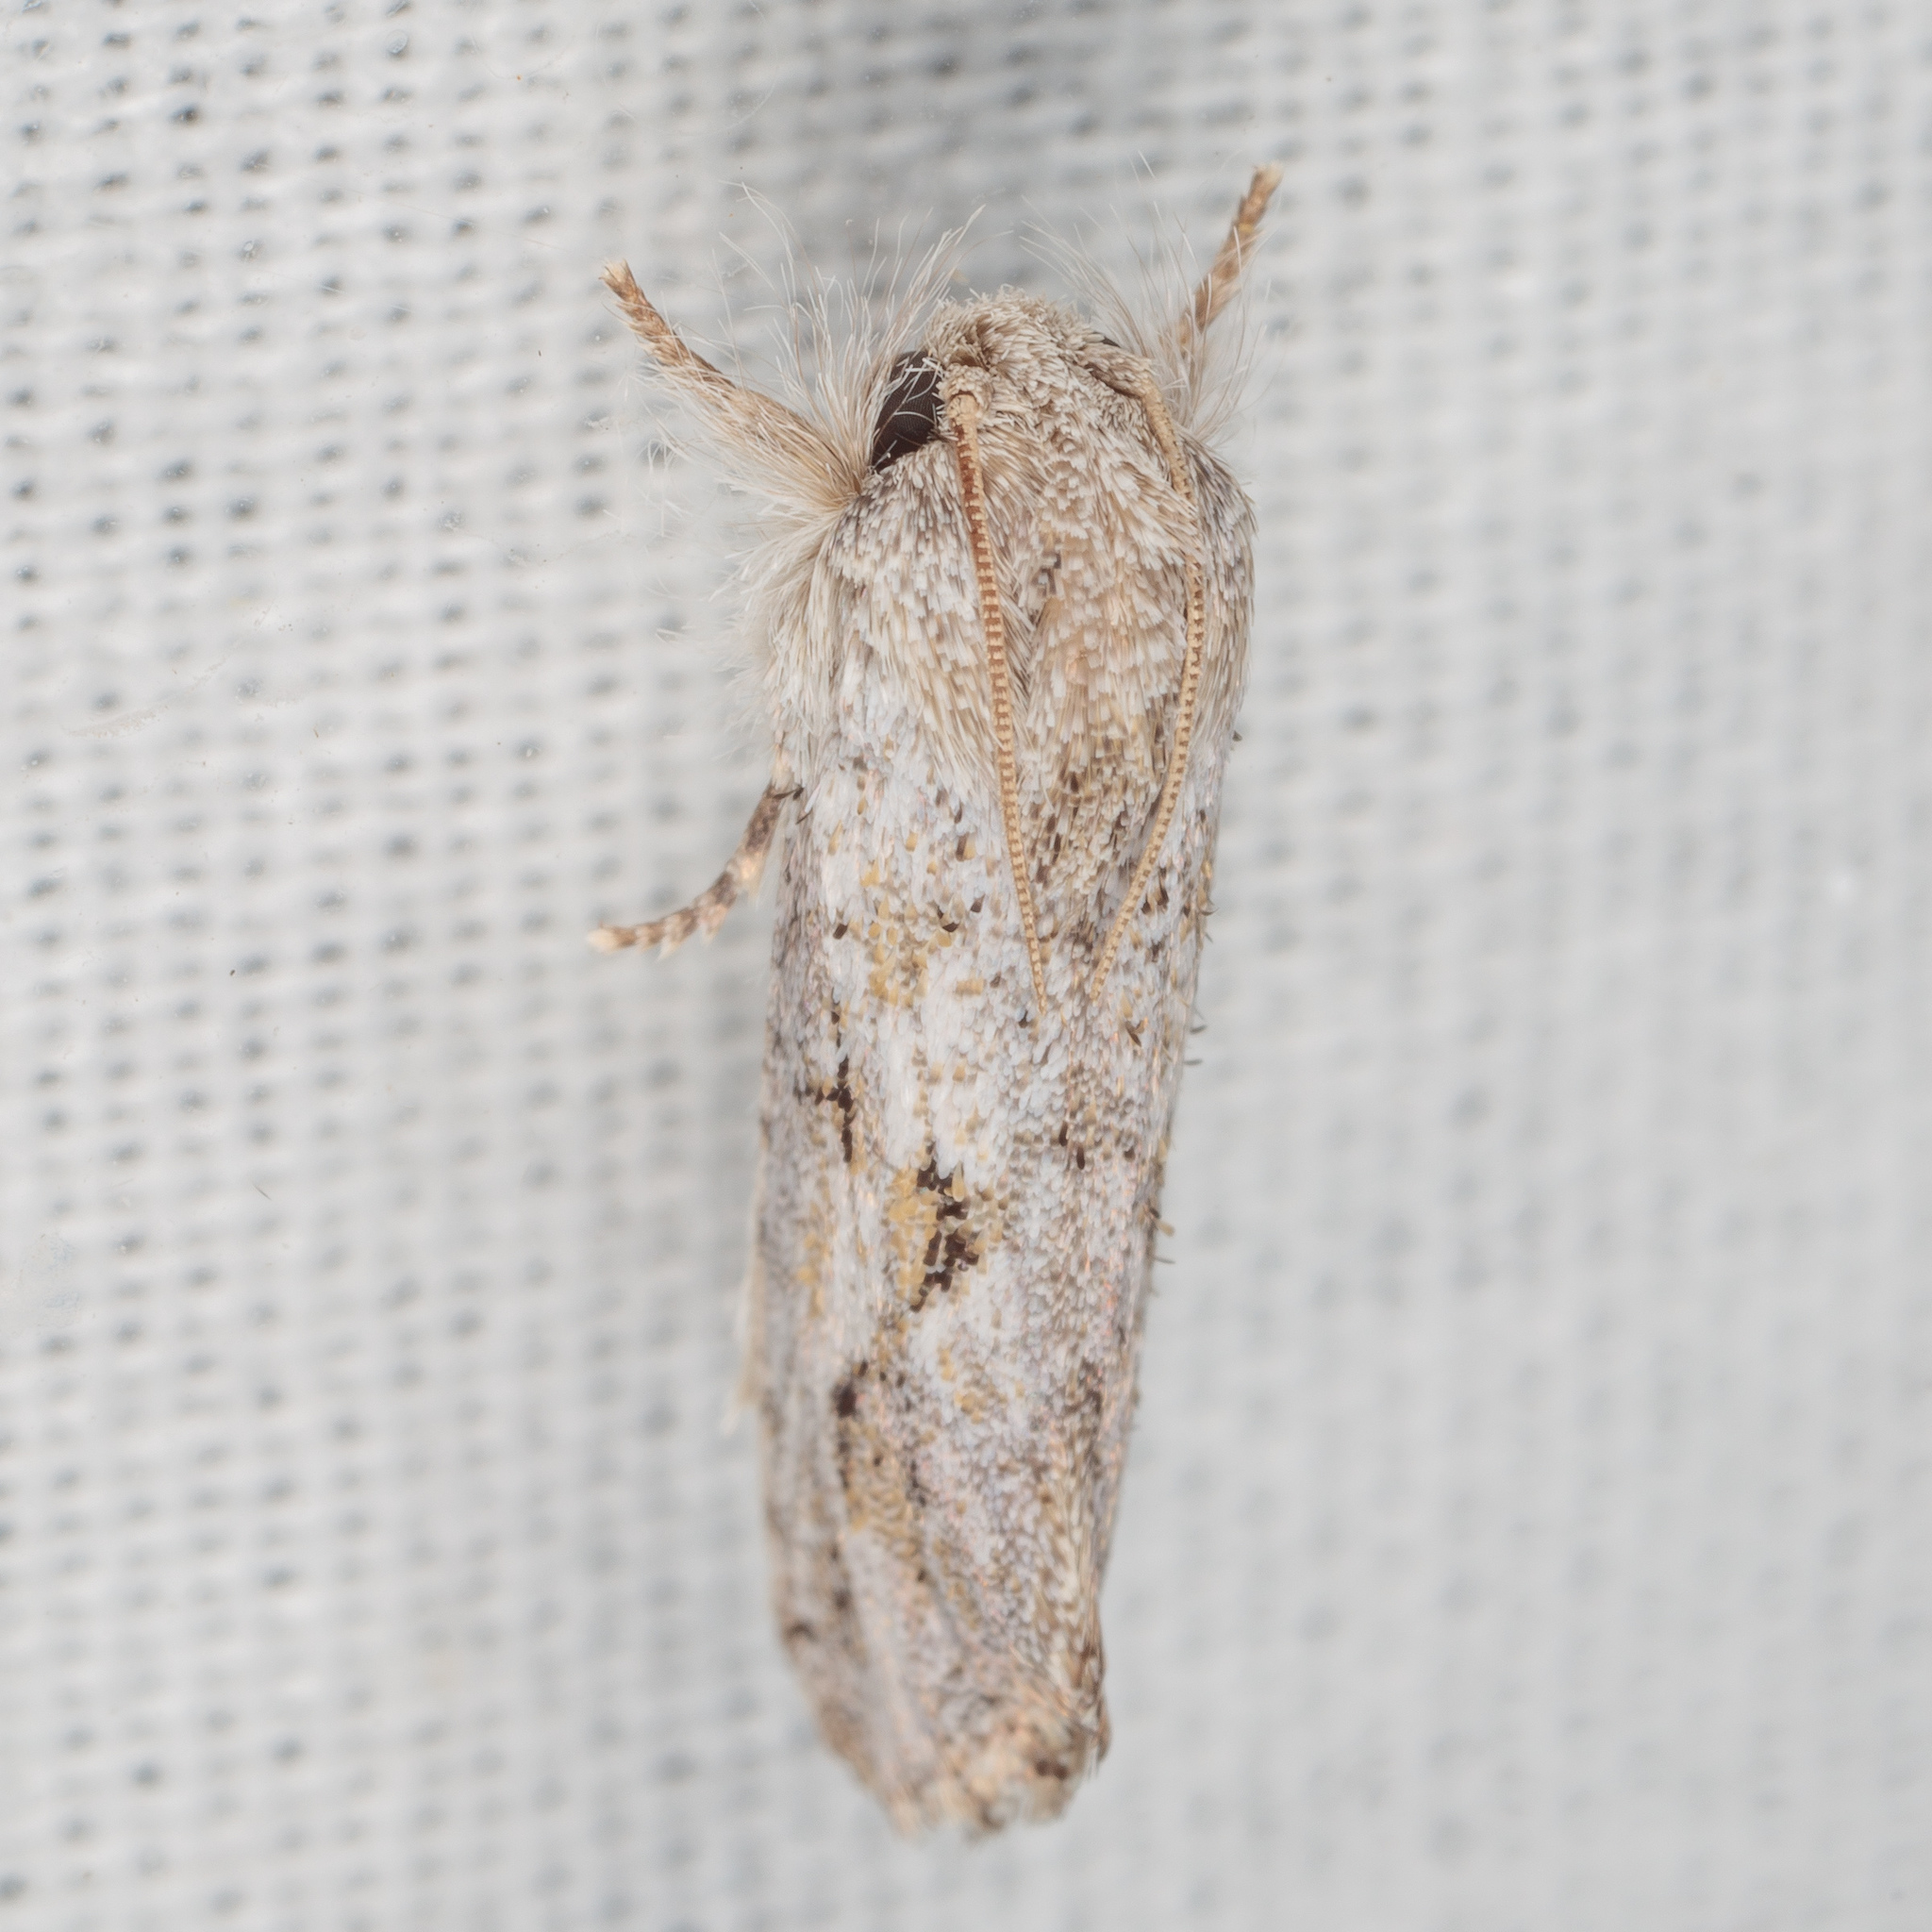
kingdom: Animalia
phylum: Arthropoda
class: Insecta
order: Lepidoptera
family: Tineidae
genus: Acrolophus
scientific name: Acrolophus griseus
